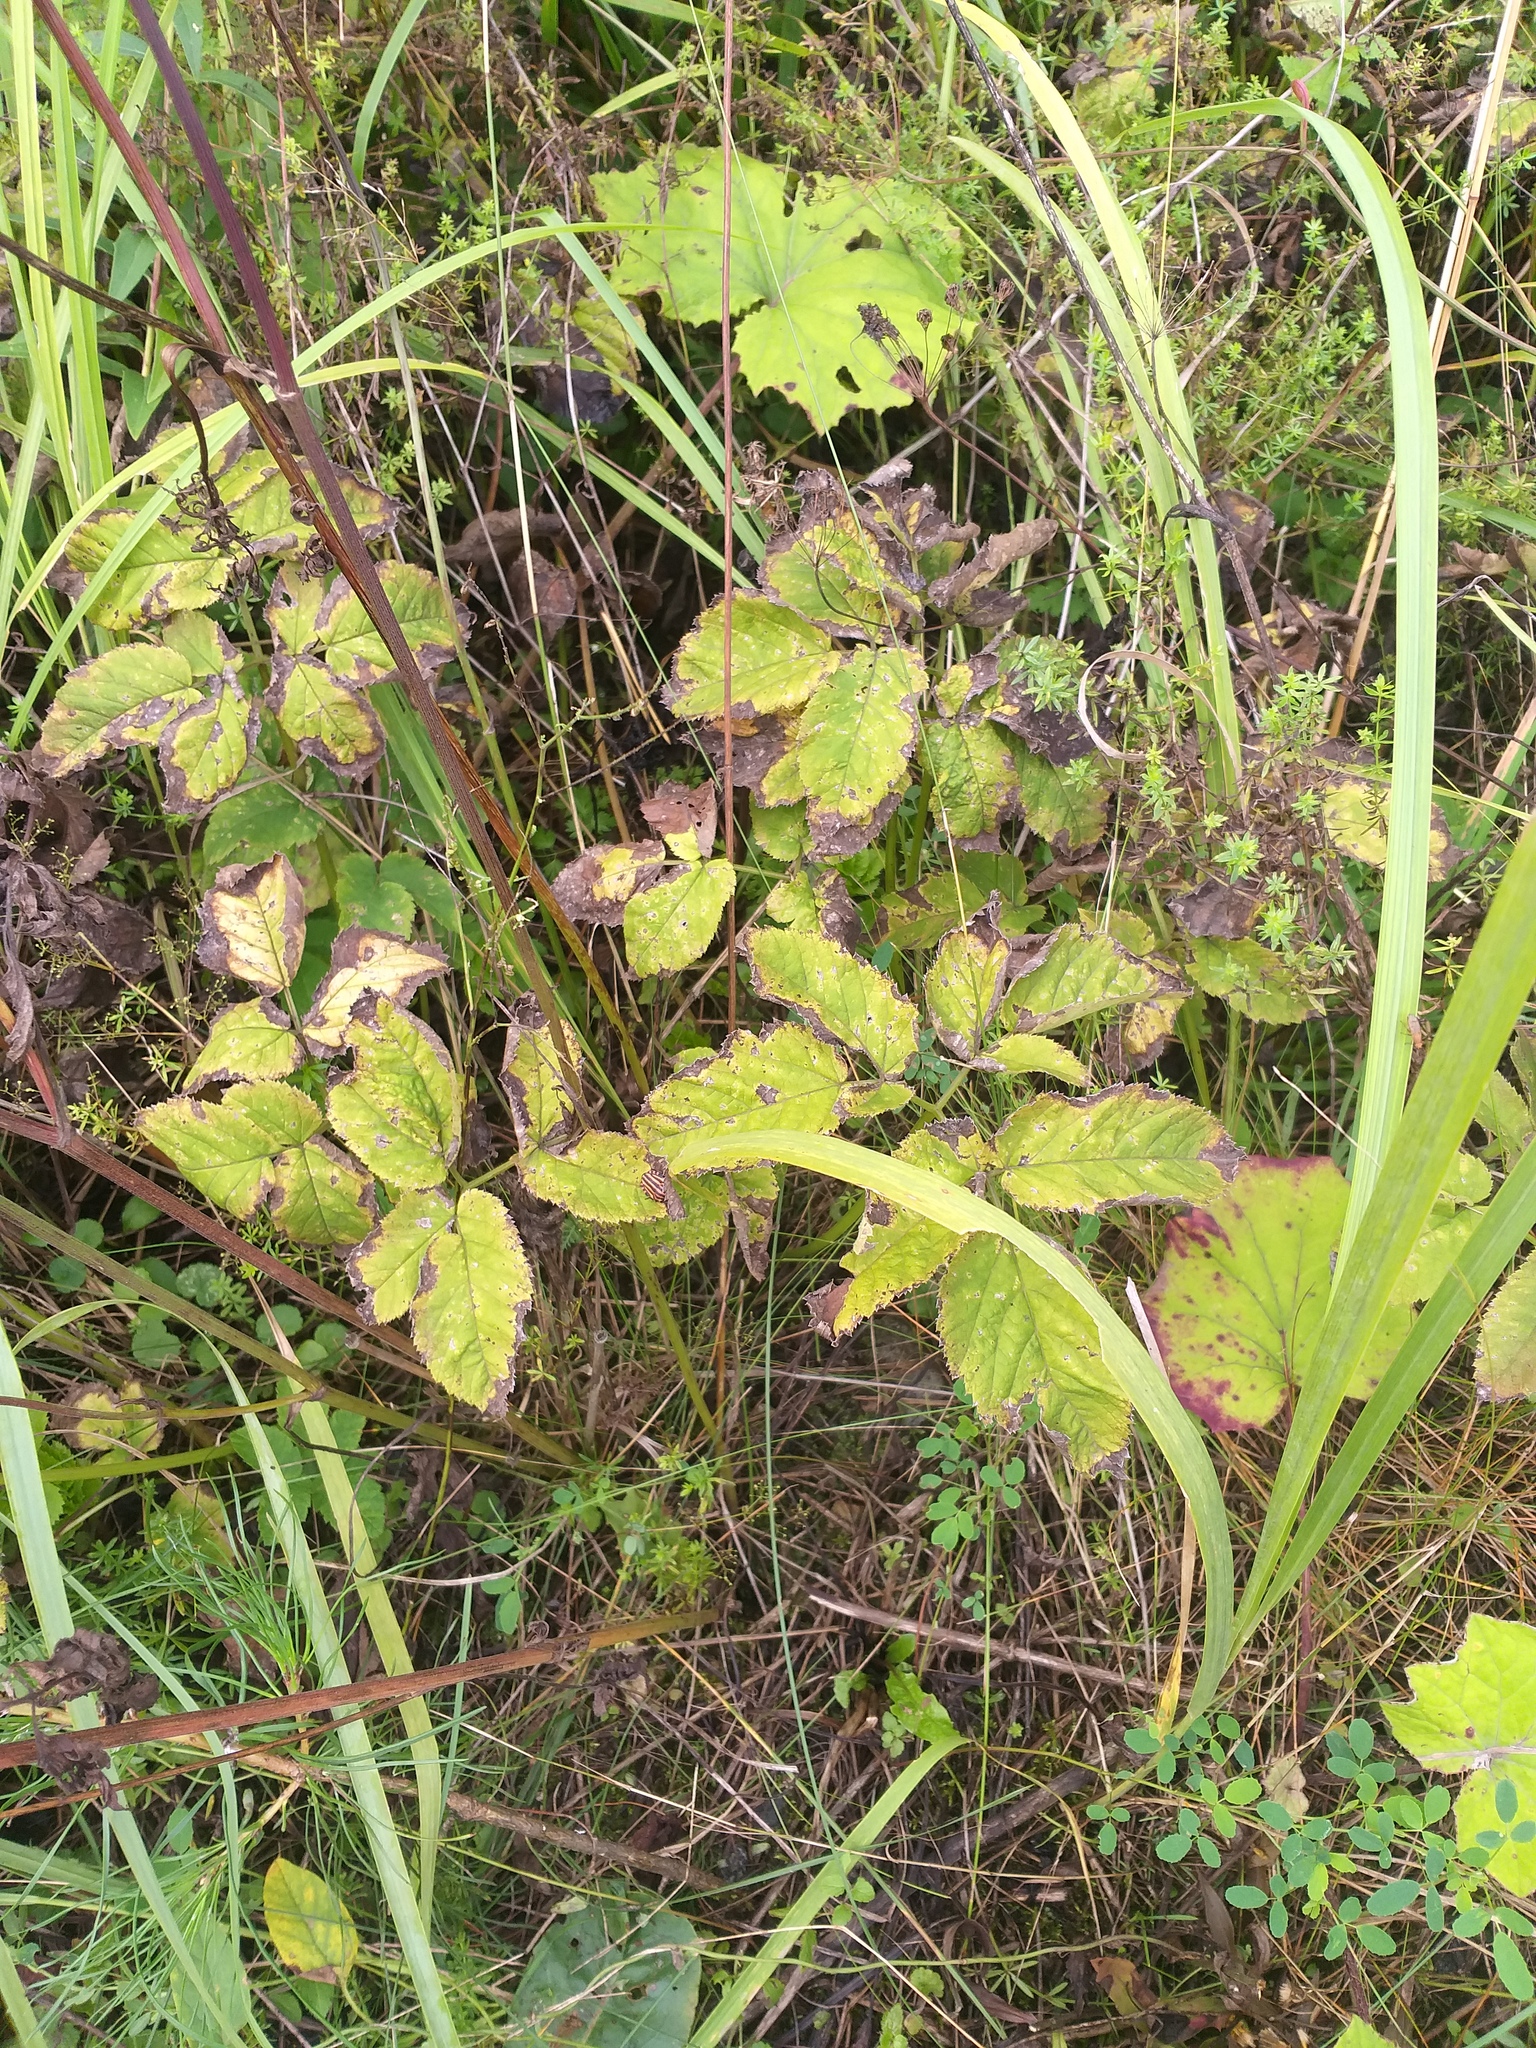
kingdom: Plantae
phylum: Tracheophyta
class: Magnoliopsida
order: Apiales
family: Apiaceae
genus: Aegopodium
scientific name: Aegopodium podagraria
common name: Ground-elder
